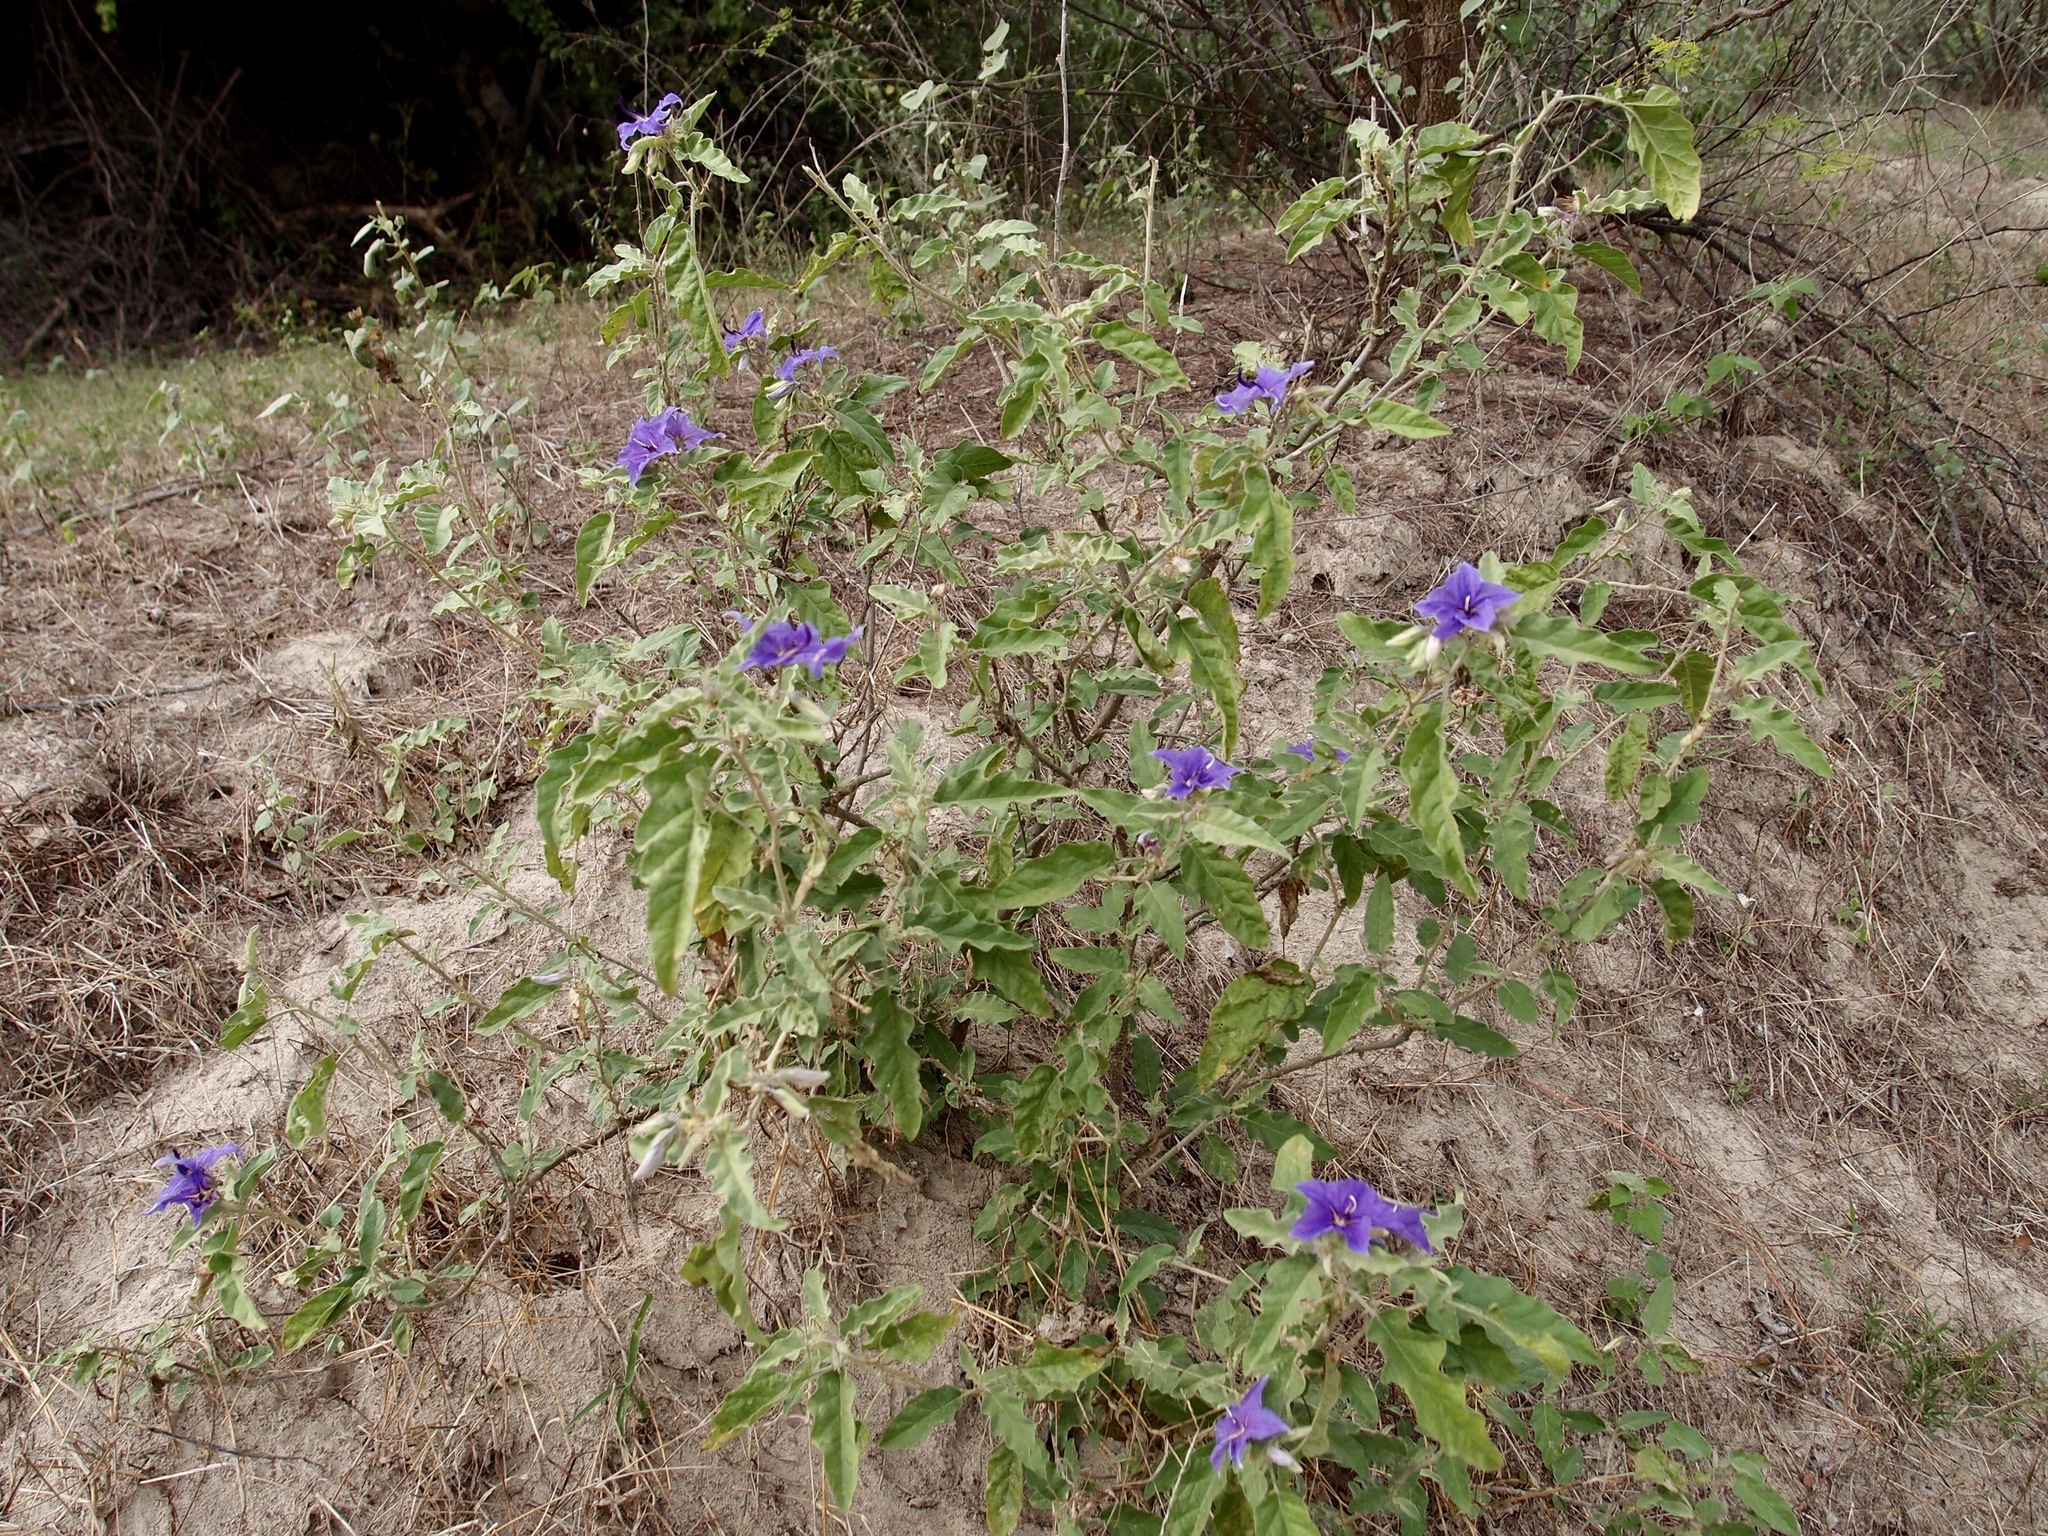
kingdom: Plantae
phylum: Tracheophyta
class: Magnoliopsida
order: Solanales
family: Solanaceae
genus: Solanum
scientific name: Solanum houstonii
